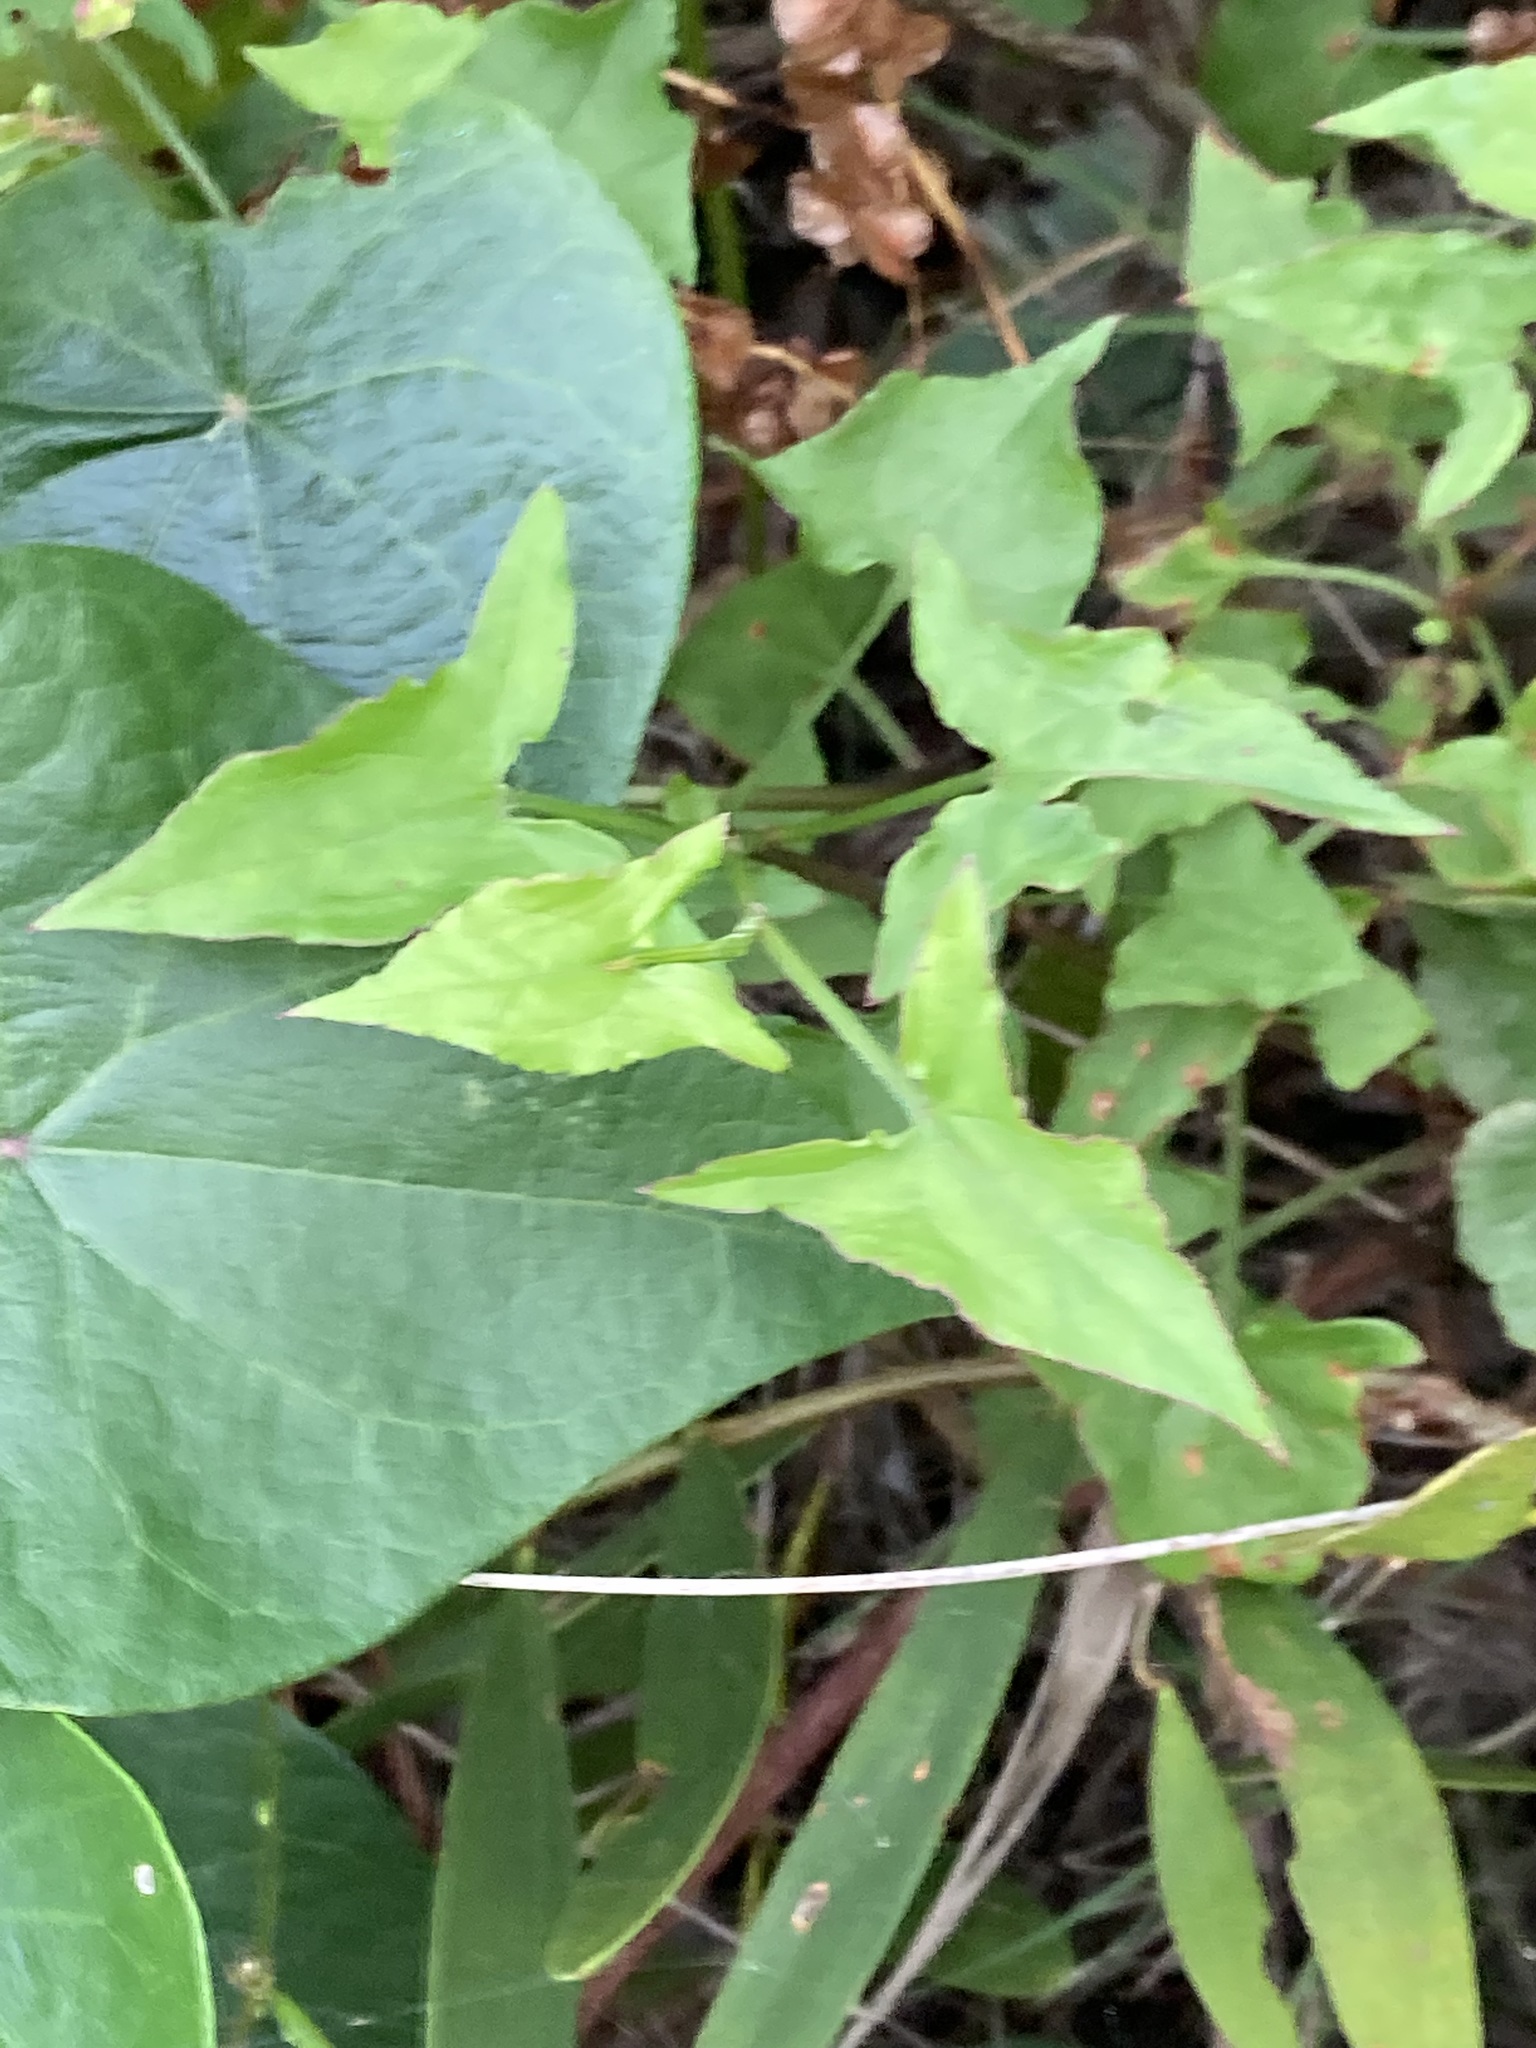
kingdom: Plantae
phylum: Tracheophyta
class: Magnoliopsida
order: Caryophyllales
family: Polygonaceae
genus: Rumex
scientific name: Rumex sagittatus
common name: Climbing dock
